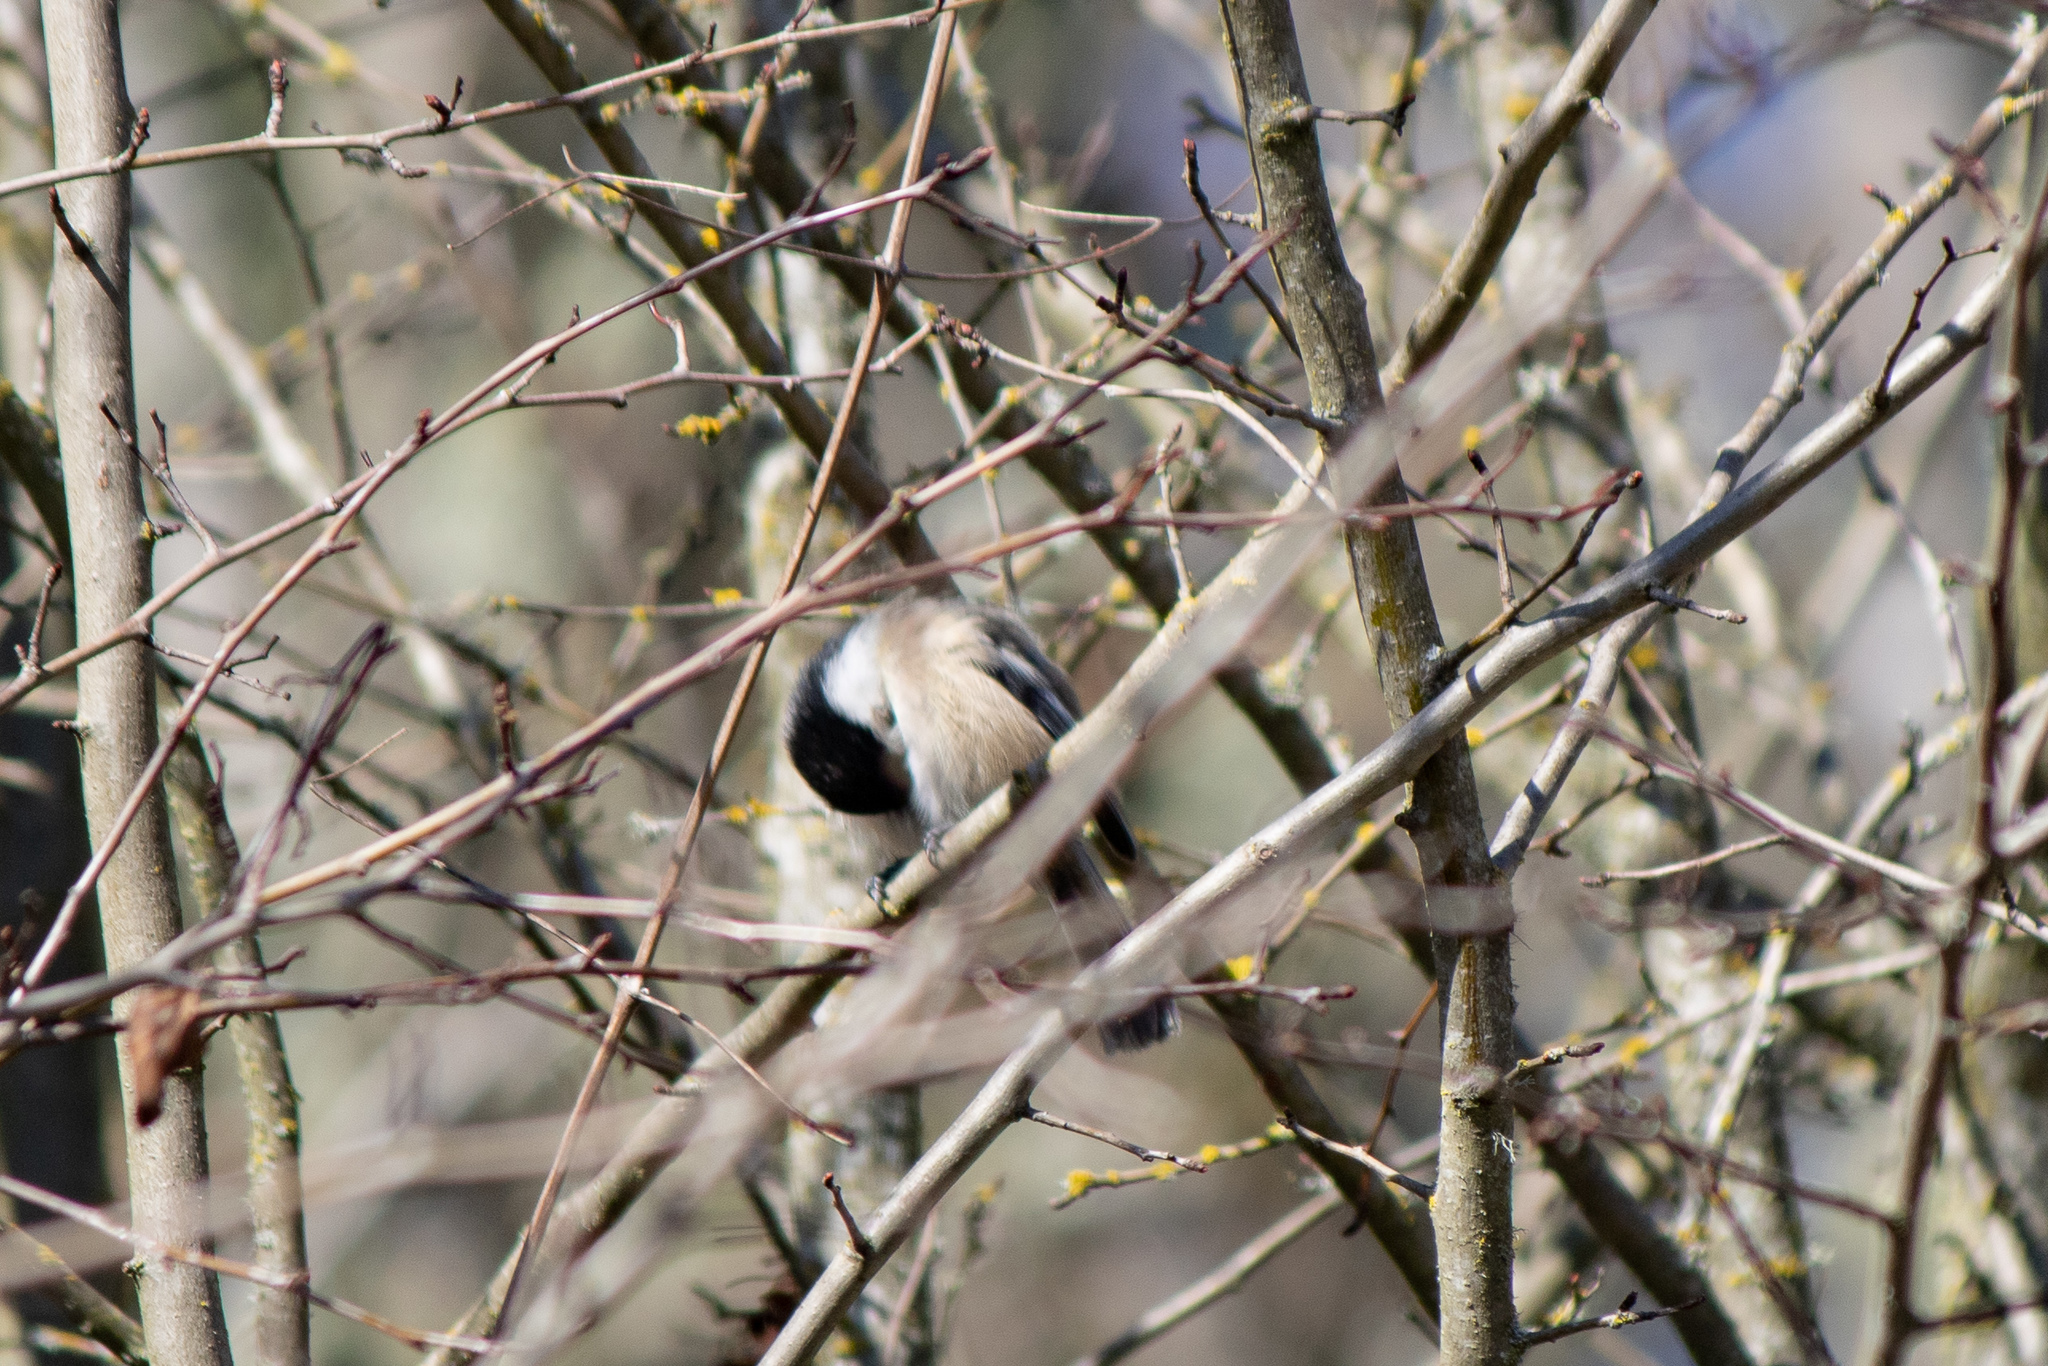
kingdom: Animalia
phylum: Chordata
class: Aves
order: Passeriformes
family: Paridae
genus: Poecile
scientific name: Poecile atricapillus
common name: Black-capped chickadee
